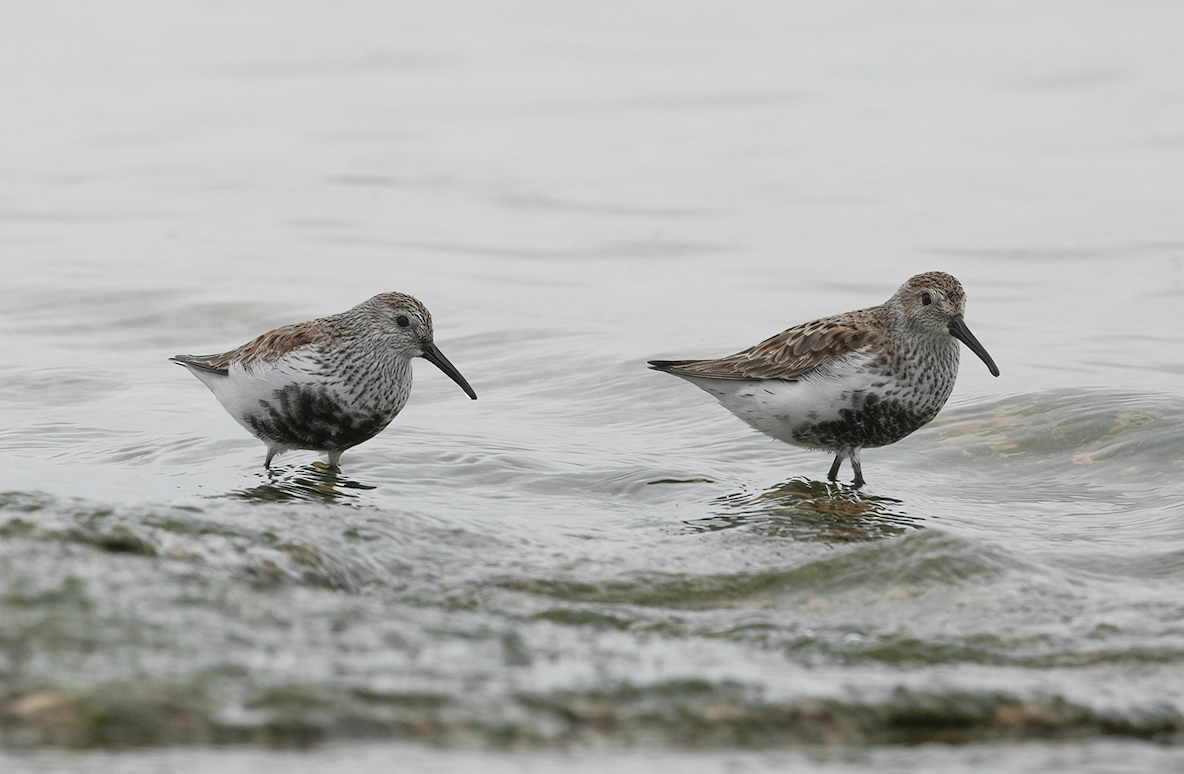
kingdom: Animalia
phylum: Chordata
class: Aves
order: Charadriiformes
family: Scolopacidae
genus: Calidris
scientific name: Calidris alpina
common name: Dunlin
